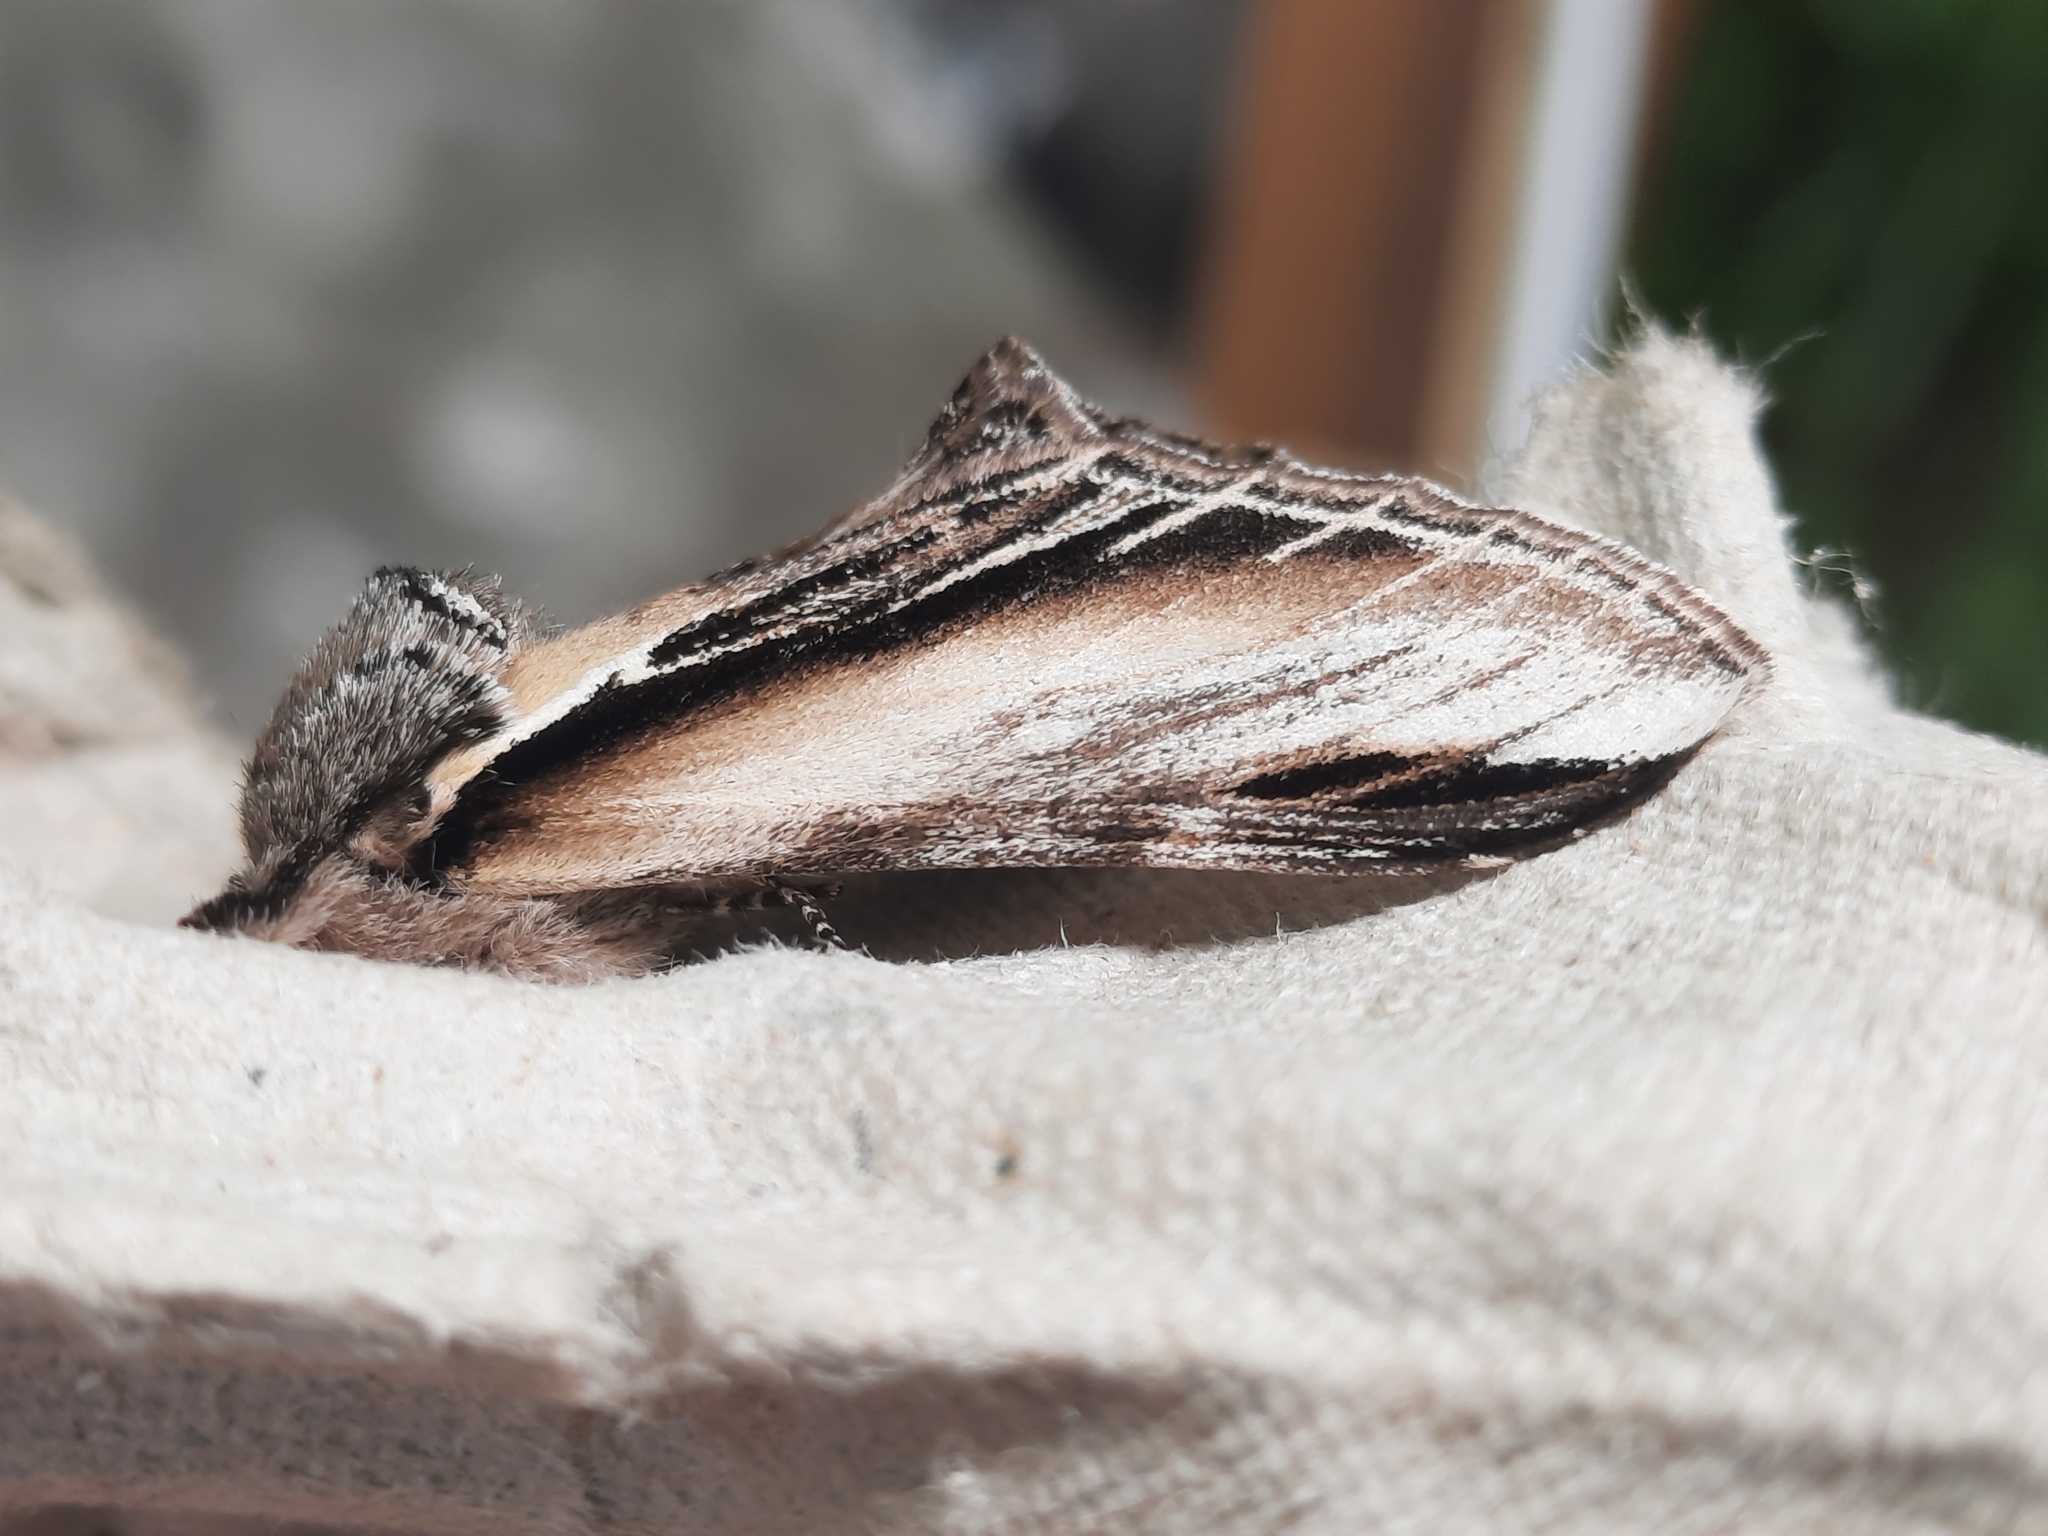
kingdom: Animalia
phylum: Arthropoda
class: Insecta
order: Lepidoptera
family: Notodontidae
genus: Pheosia
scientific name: Pheosia tremula
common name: Swallow prominent
